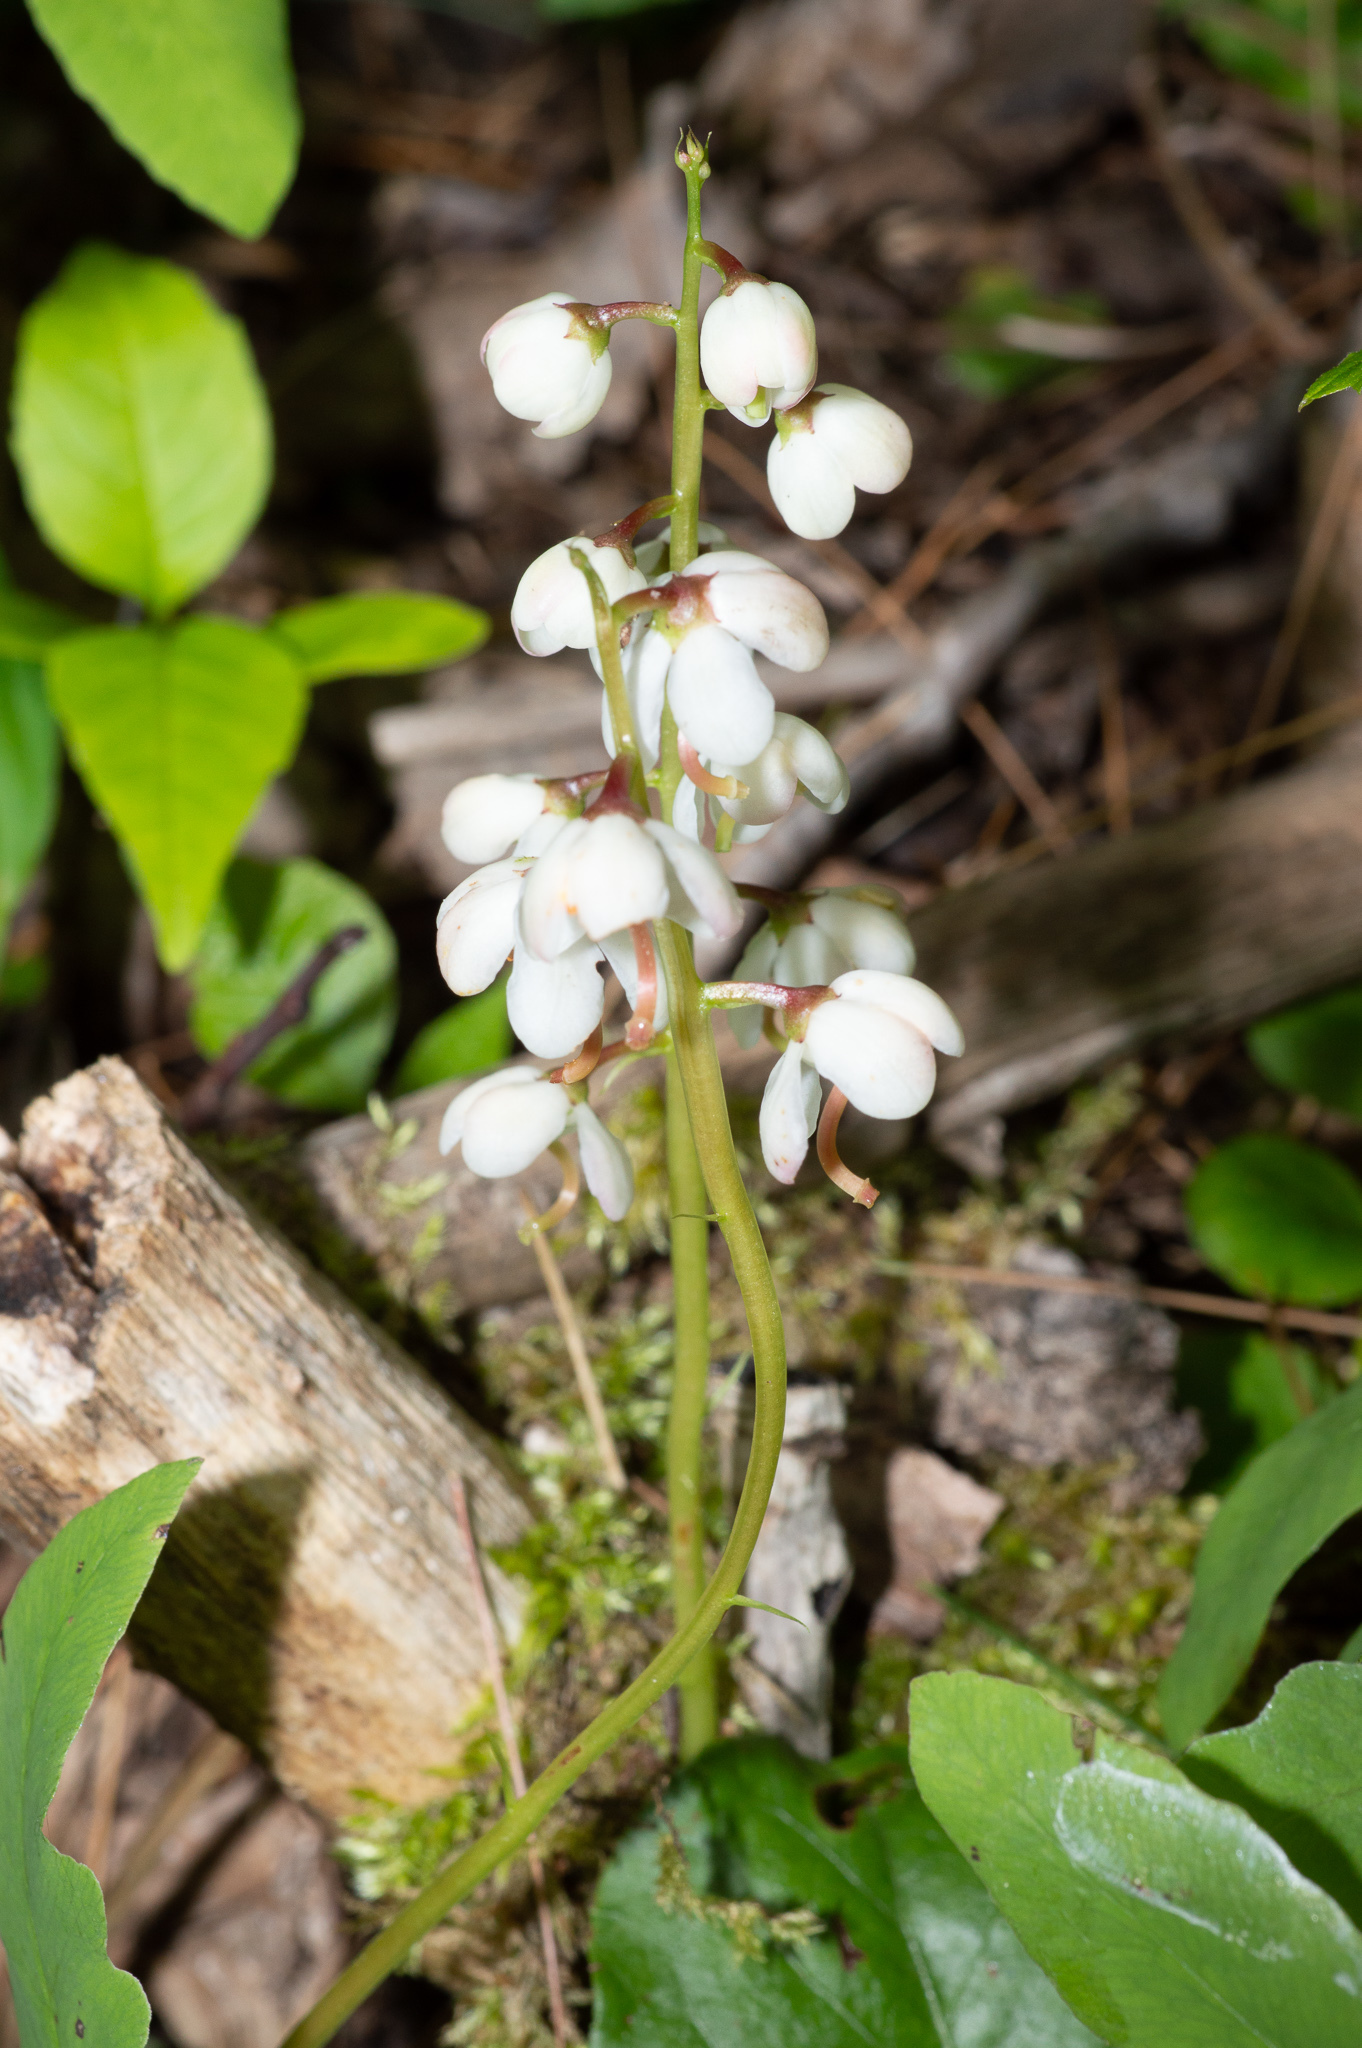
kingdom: Plantae
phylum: Tracheophyta
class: Magnoliopsida
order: Ericales
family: Ericaceae
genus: Pyrola
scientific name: Pyrola elliptica
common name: Shinleaf
